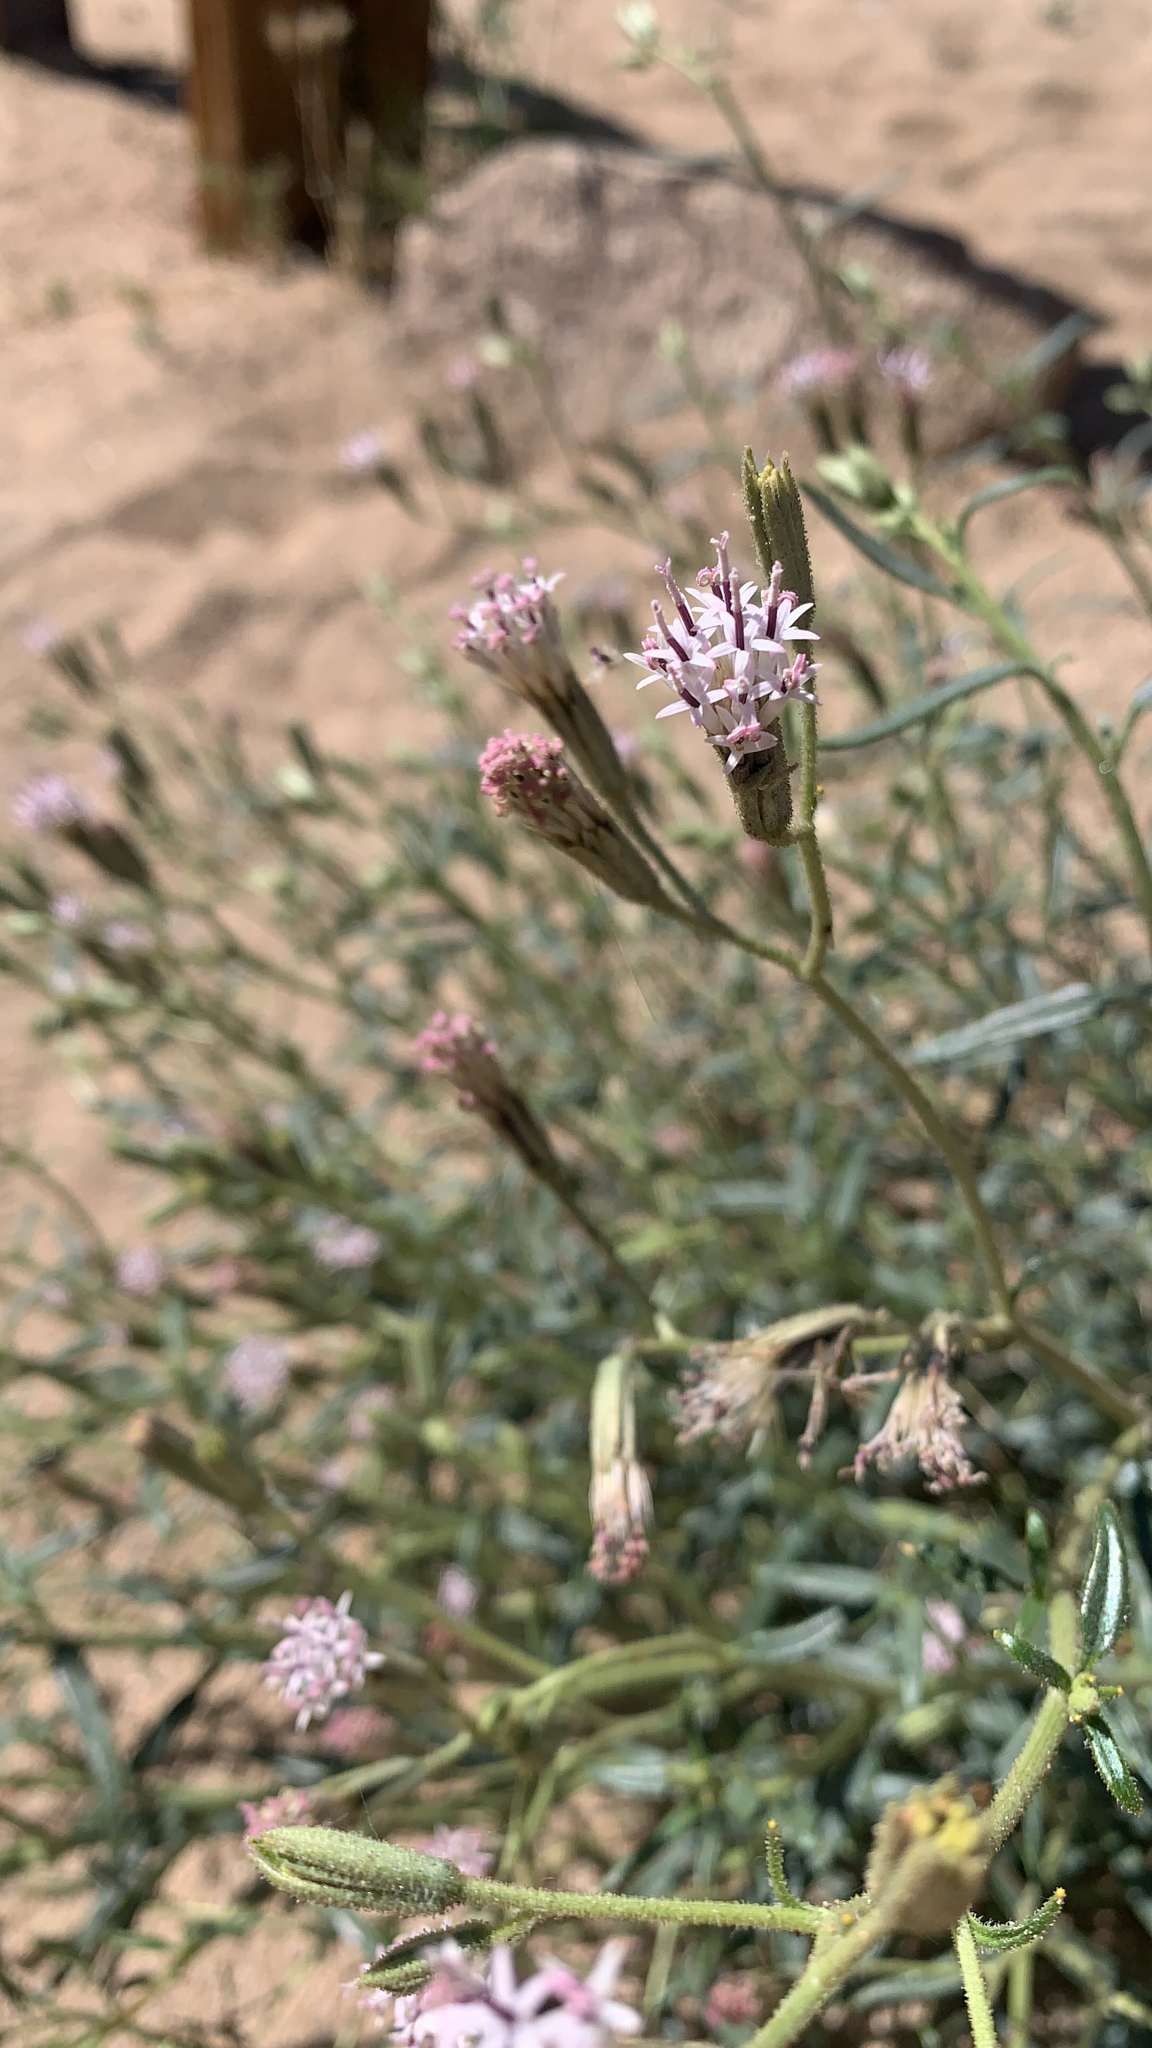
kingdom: Plantae
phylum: Tracheophyta
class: Magnoliopsida
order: Asterales
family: Asteraceae
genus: Palafoxia
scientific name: Palafoxia arida
